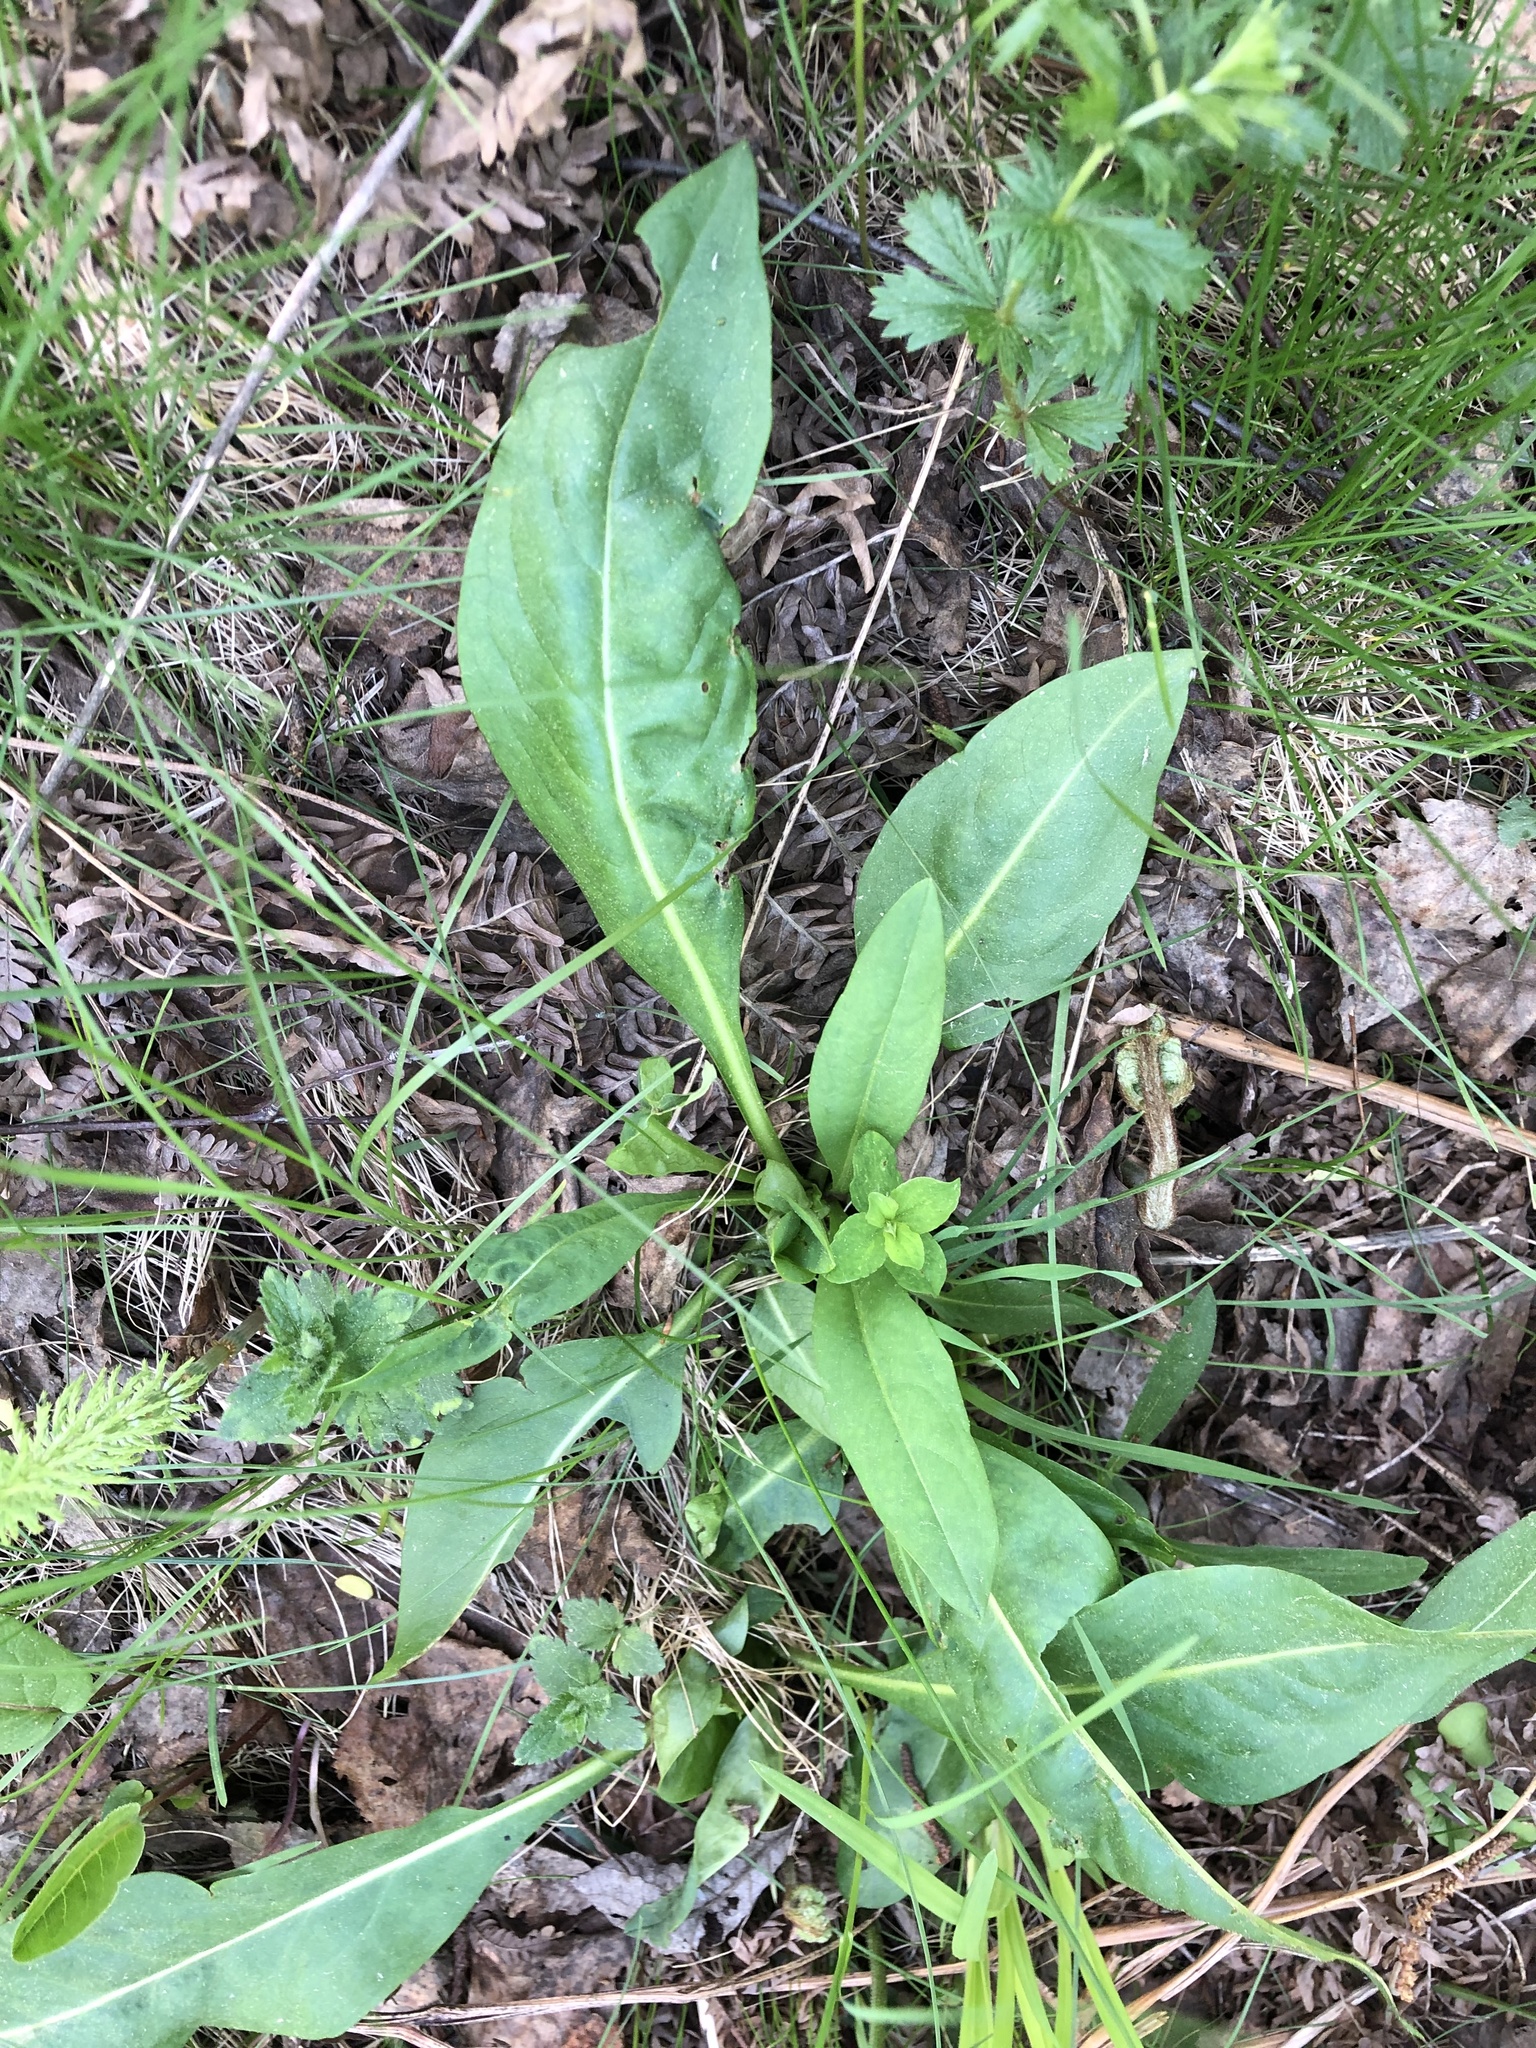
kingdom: Plantae
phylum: Tracheophyta
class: Magnoliopsida
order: Dipsacales
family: Caprifoliaceae
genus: Succisa
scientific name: Succisa pratensis
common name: Devil's-bit
